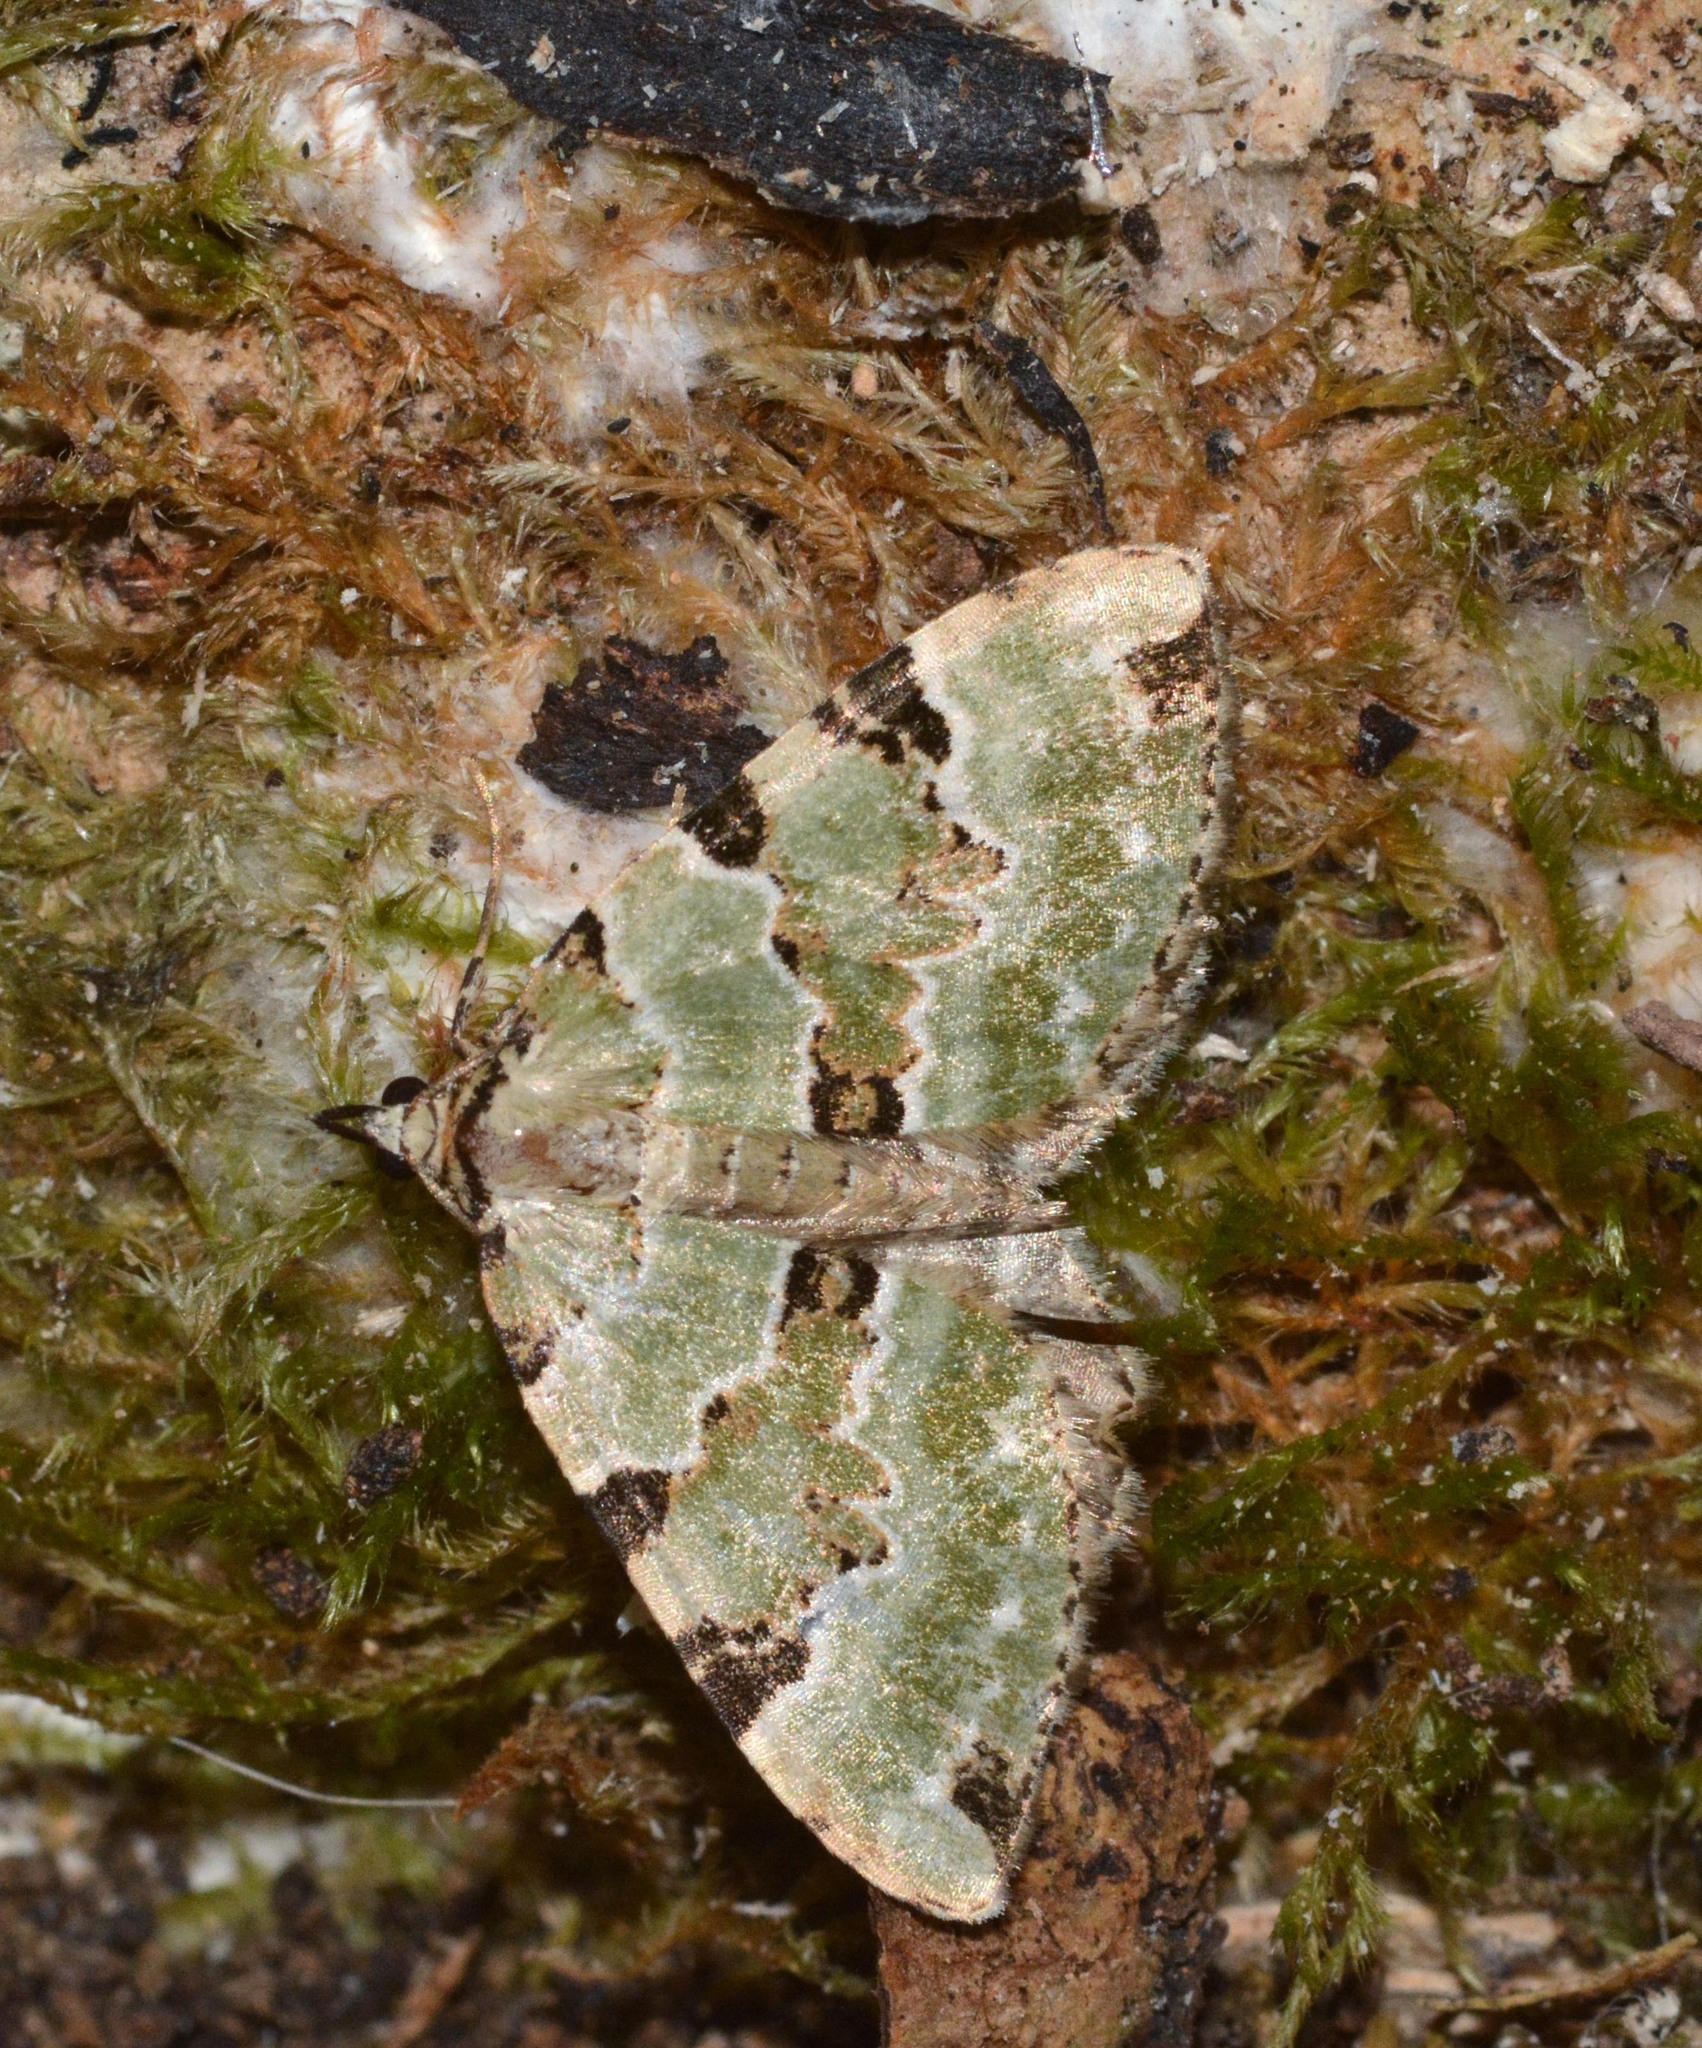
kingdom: Animalia
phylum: Arthropoda
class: Insecta
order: Lepidoptera
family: Geometridae
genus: Colostygia
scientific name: Colostygia pectinataria
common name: Green carpet
